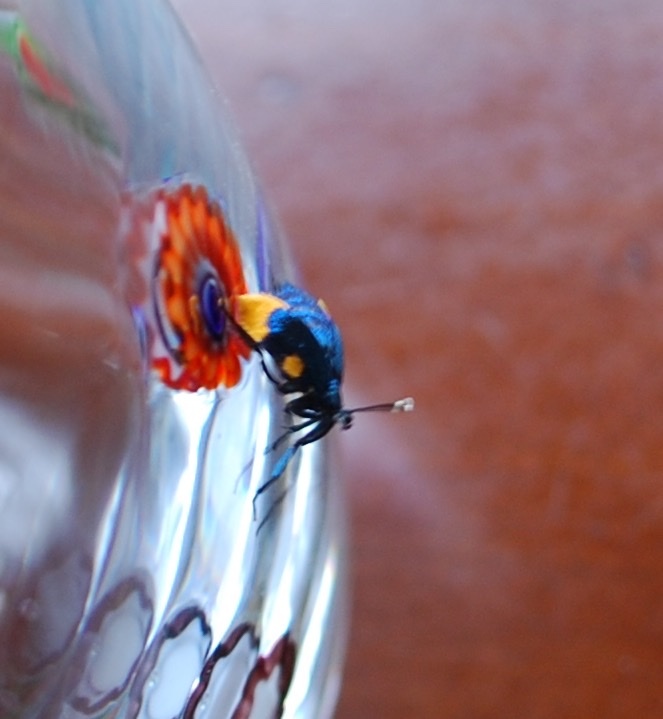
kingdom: Animalia
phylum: Arthropoda
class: Insecta
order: Lepidoptera
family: Psychidae
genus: Cebysa
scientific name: Cebysa leucotelus
